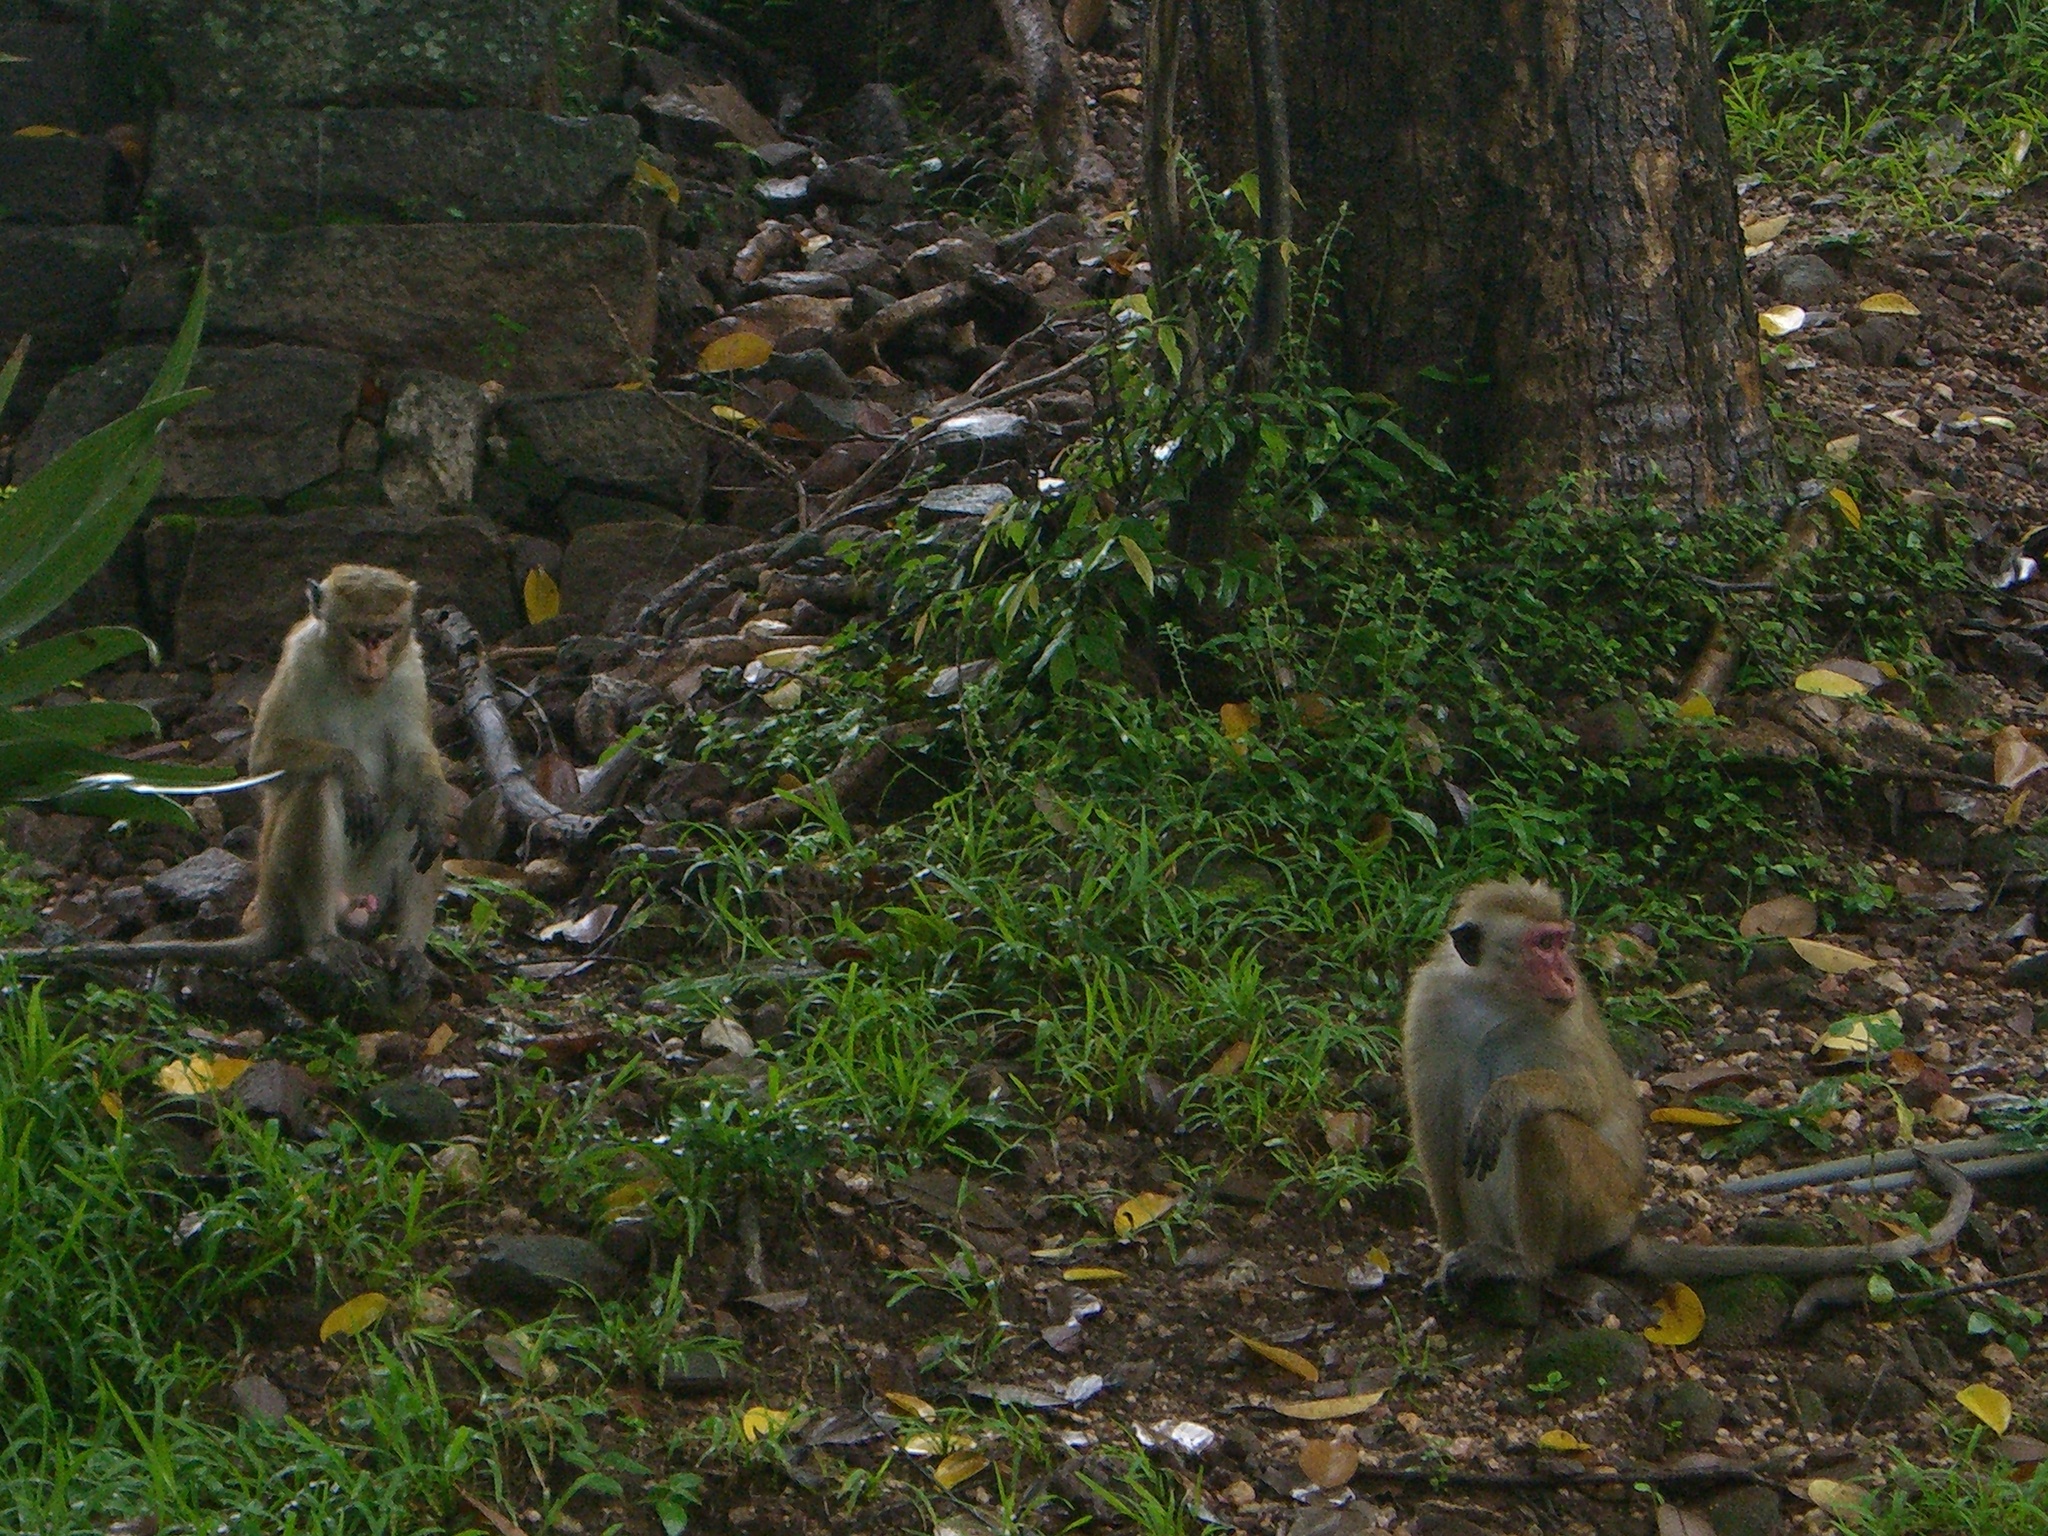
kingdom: Animalia
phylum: Chordata
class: Mammalia
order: Primates
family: Cercopithecidae
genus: Macaca
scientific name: Macaca sinica
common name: Toque macaque
